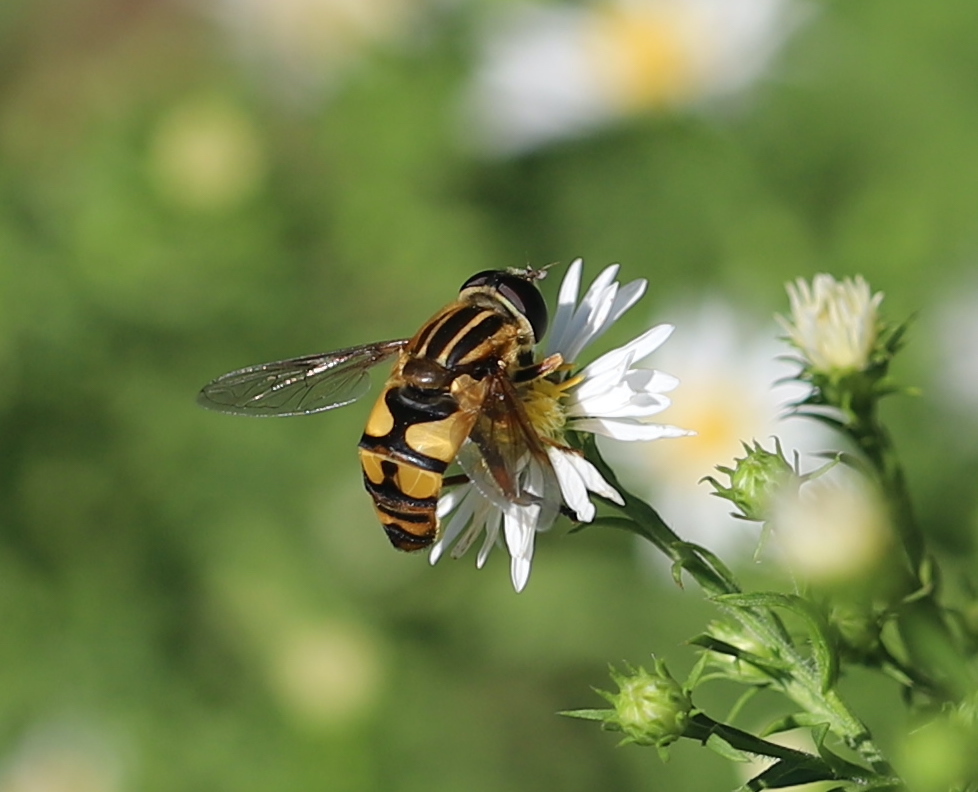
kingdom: Animalia
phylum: Arthropoda
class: Insecta
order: Diptera
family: Syrphidae
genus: Helophilus
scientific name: Helophilus fasciatus
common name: Narrow-headed marsh fly
